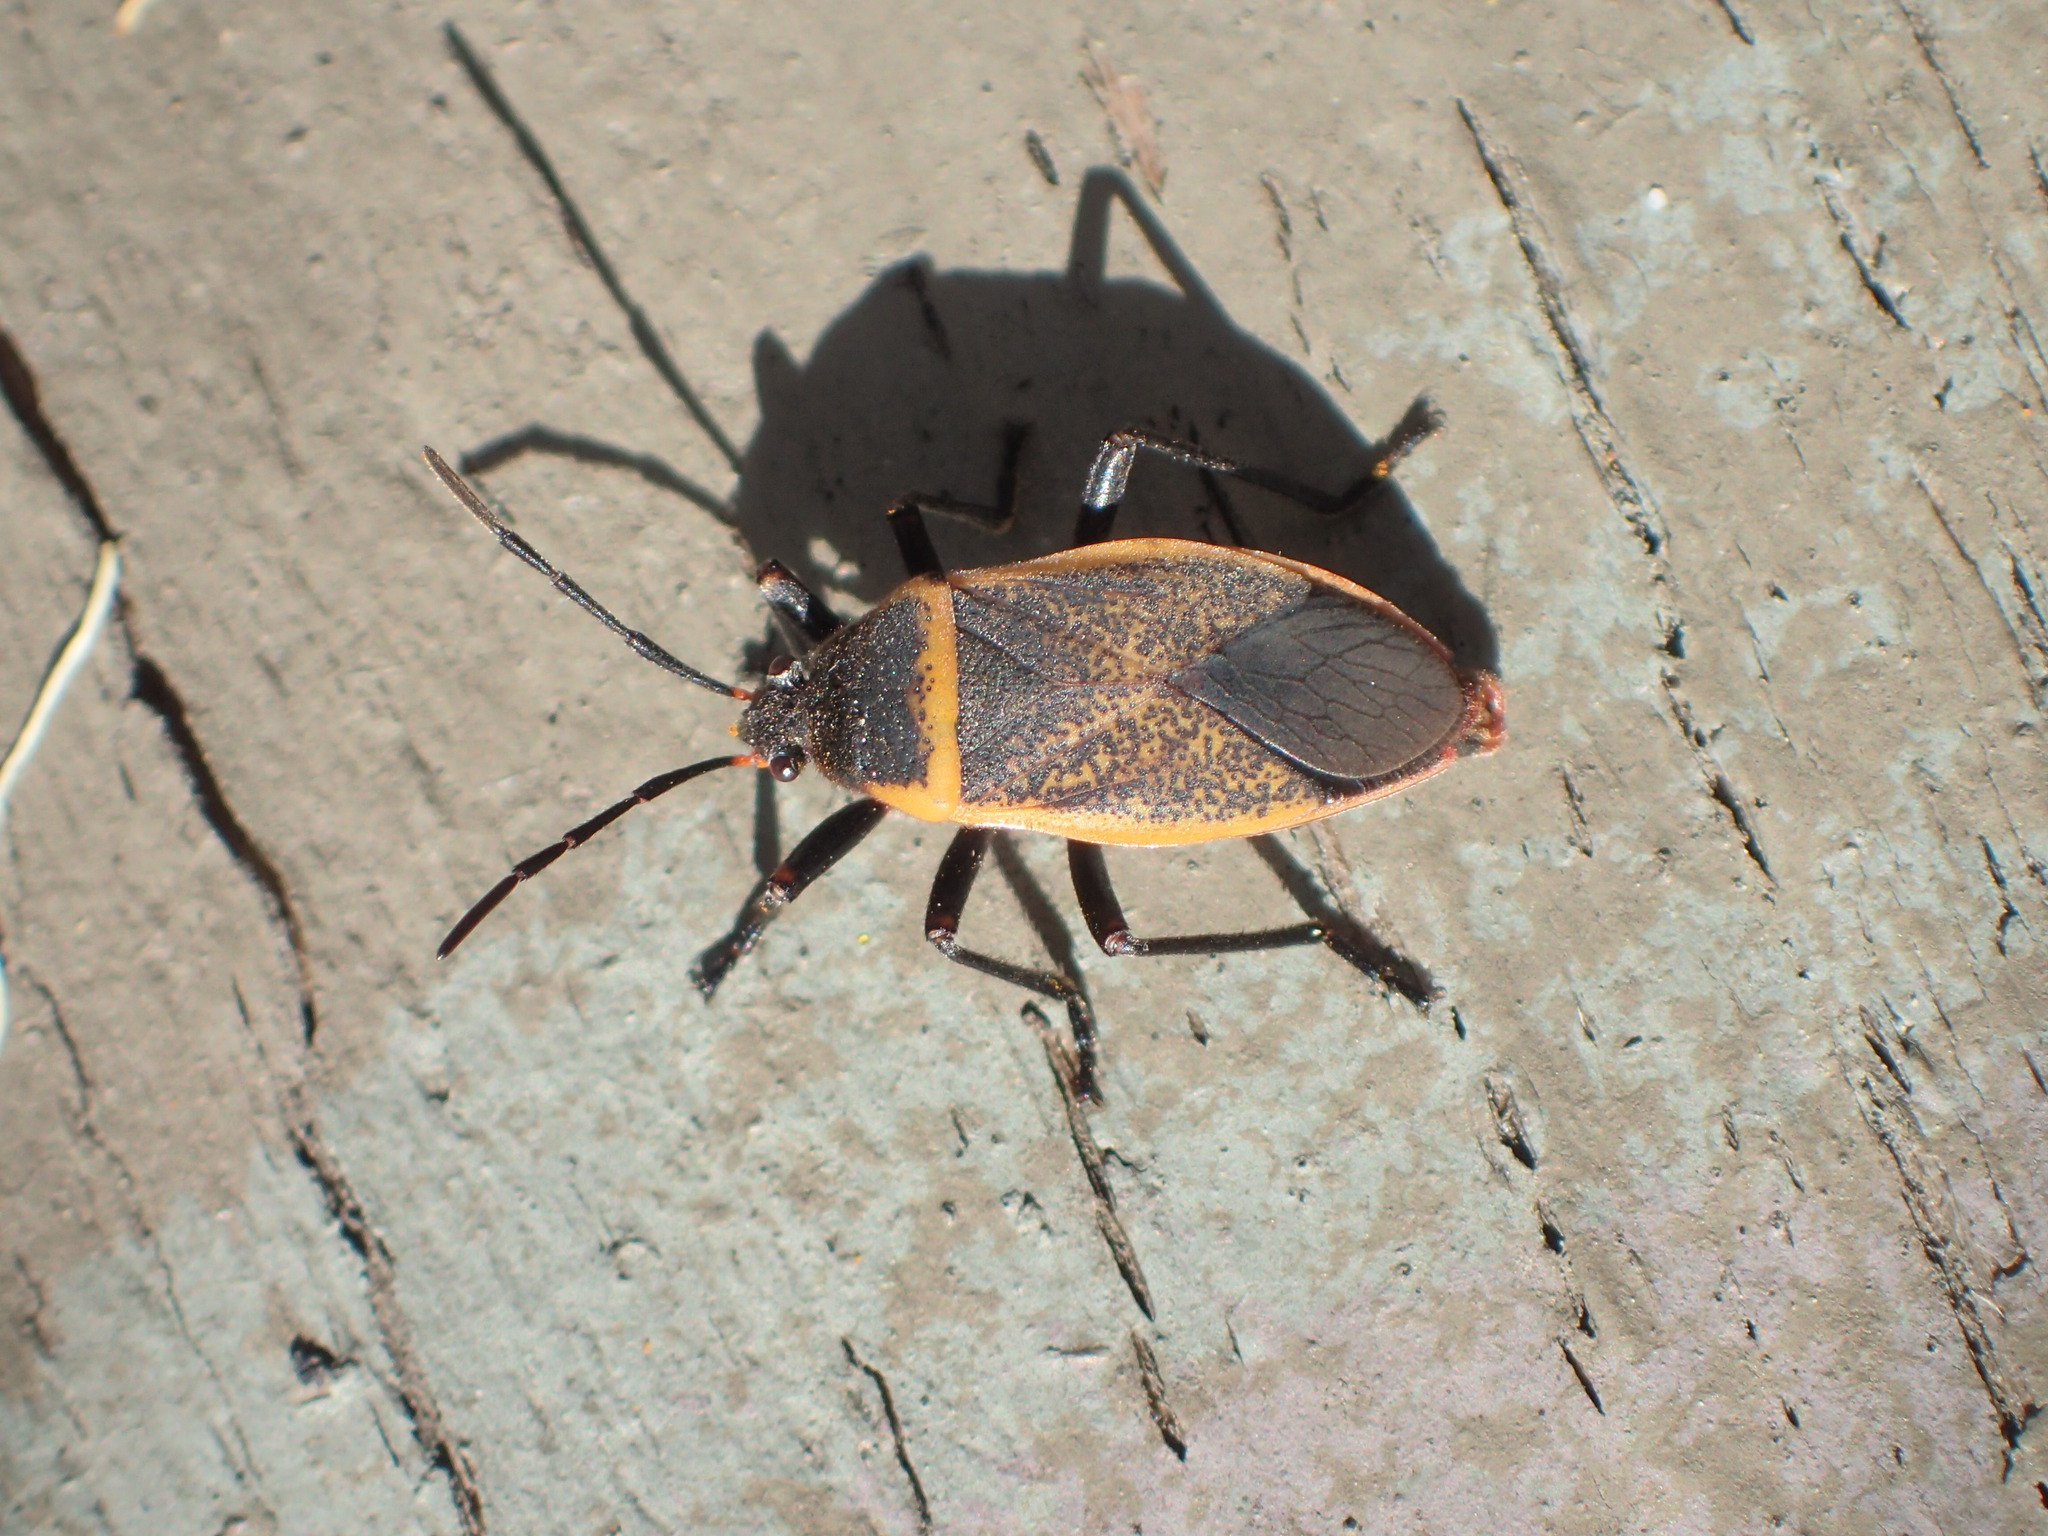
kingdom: Animalia
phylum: Arthropoda
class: Insecta
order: Hemiptera
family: Largidae
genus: Largus
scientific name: Largus californicus
